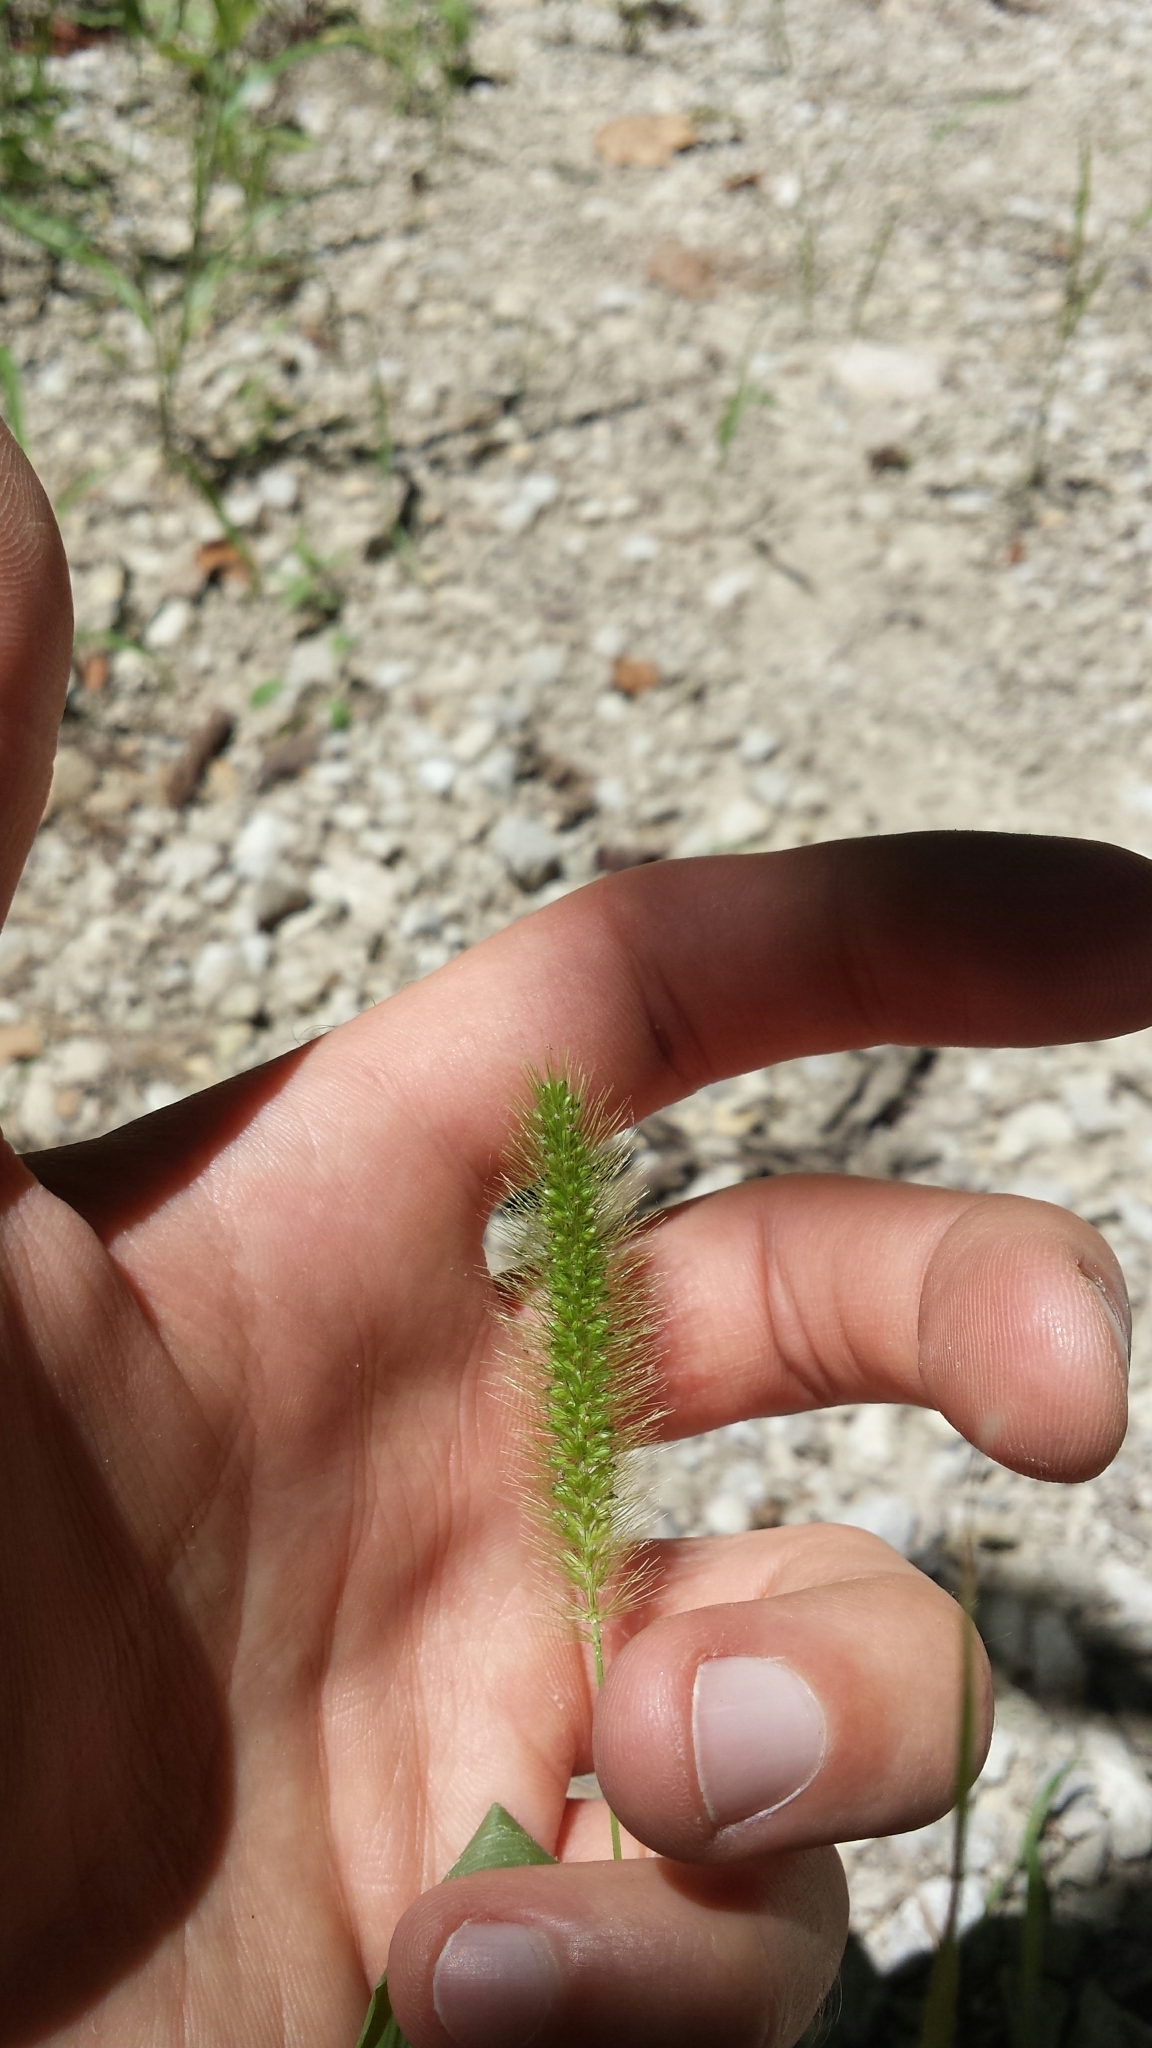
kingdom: Plantae
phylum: Tracheophyta
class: Liliopsida
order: Poales
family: Poaceae
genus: Setaria
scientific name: Setaria viridis
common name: Green bristlegrass
